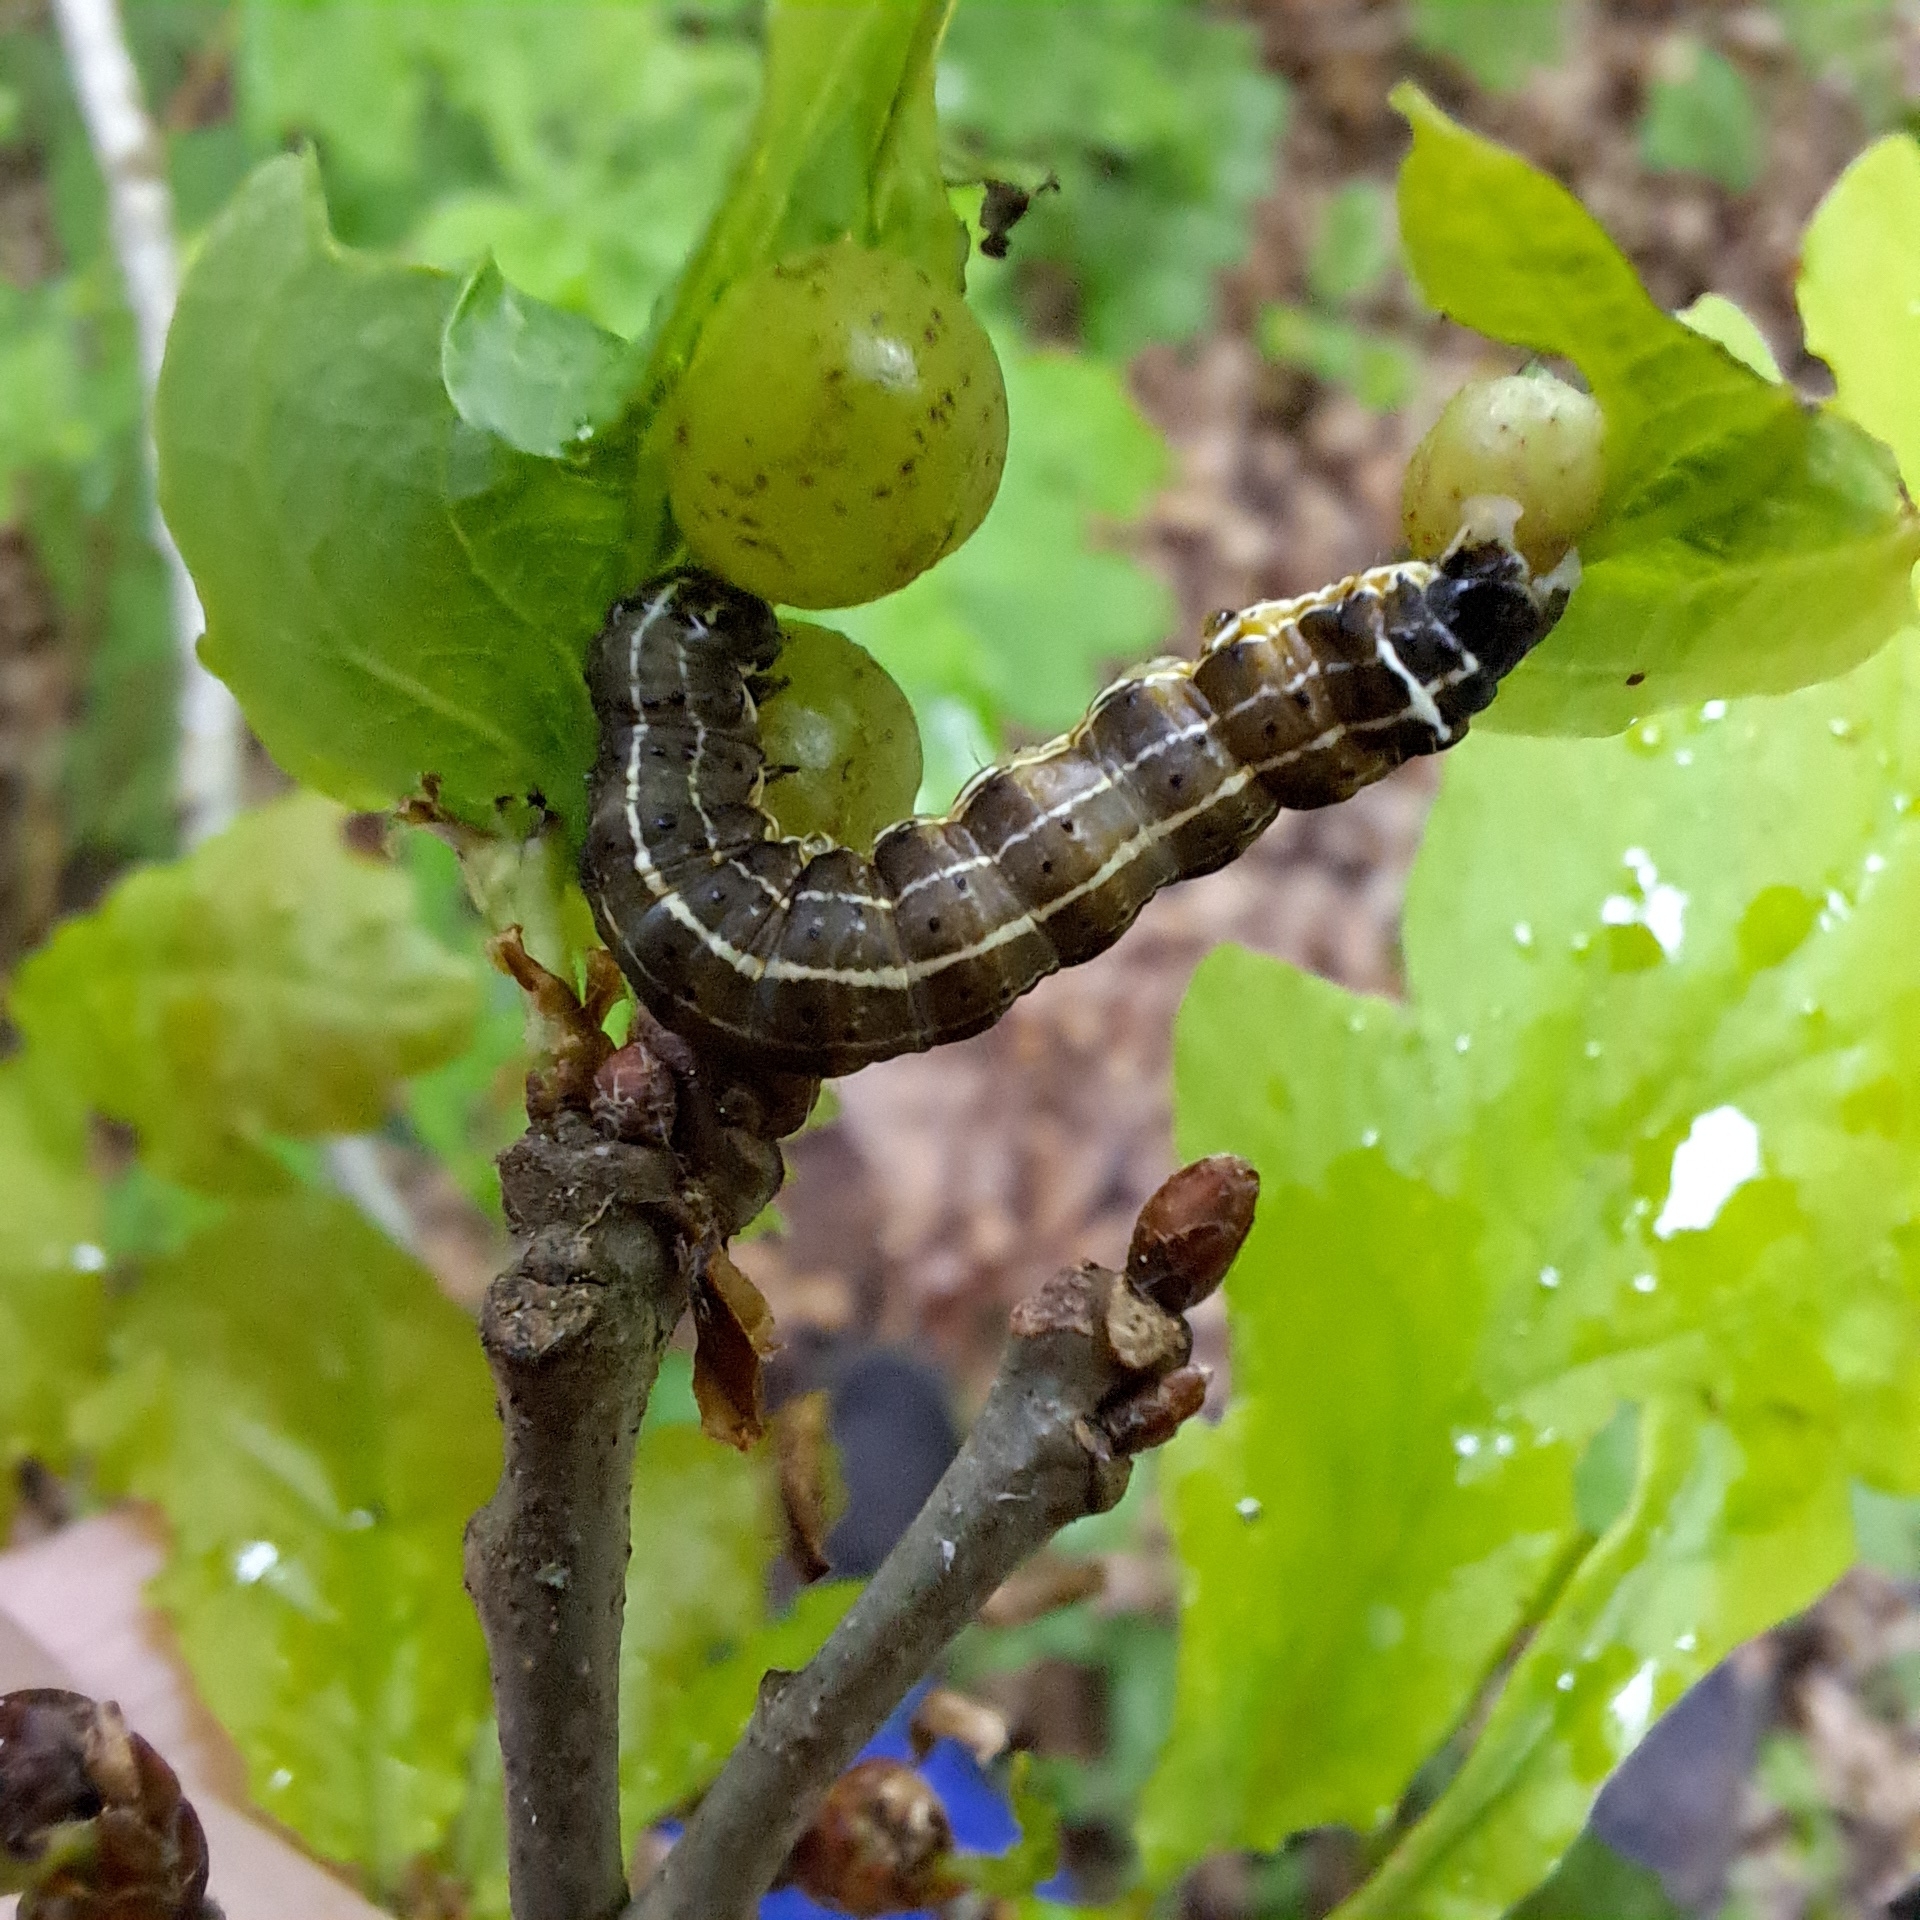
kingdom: Animalia
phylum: Arthropoda
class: Insecta
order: Lepidoptera
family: Noctuidae
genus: Orthosia
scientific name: Orthosia cruda
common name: Small quaker
